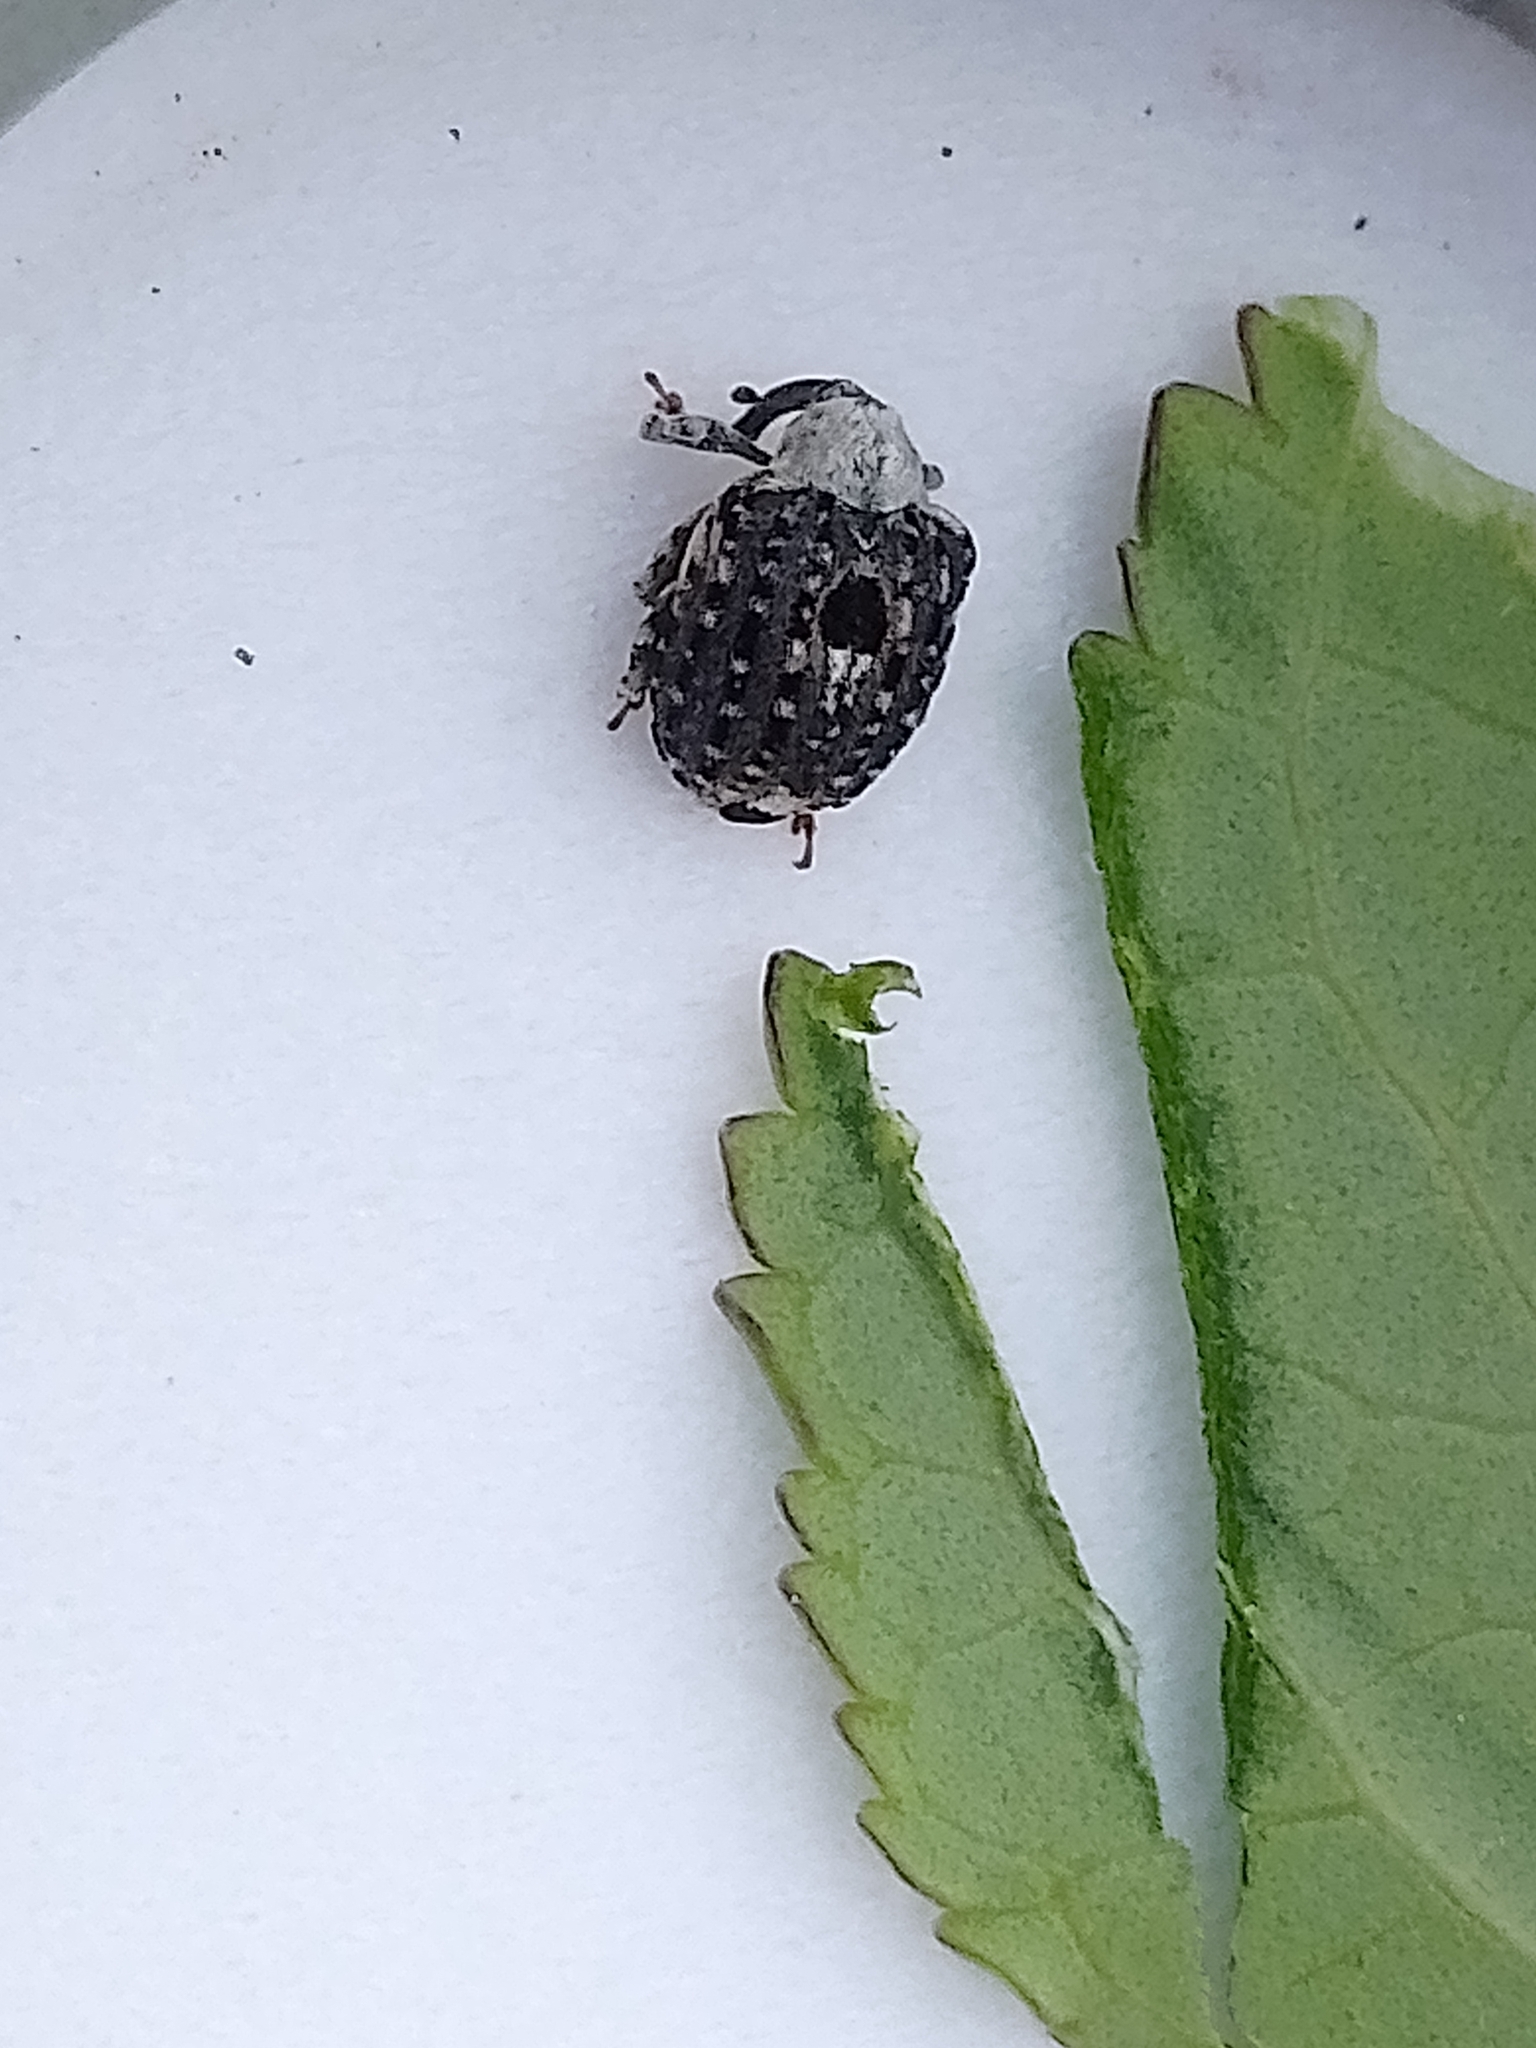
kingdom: Animalia
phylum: Arthropoda
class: Insecta
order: Coleoptera
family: Curculionidae
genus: Cionus
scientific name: Cionus scrophulariae
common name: Common figwort weevil
